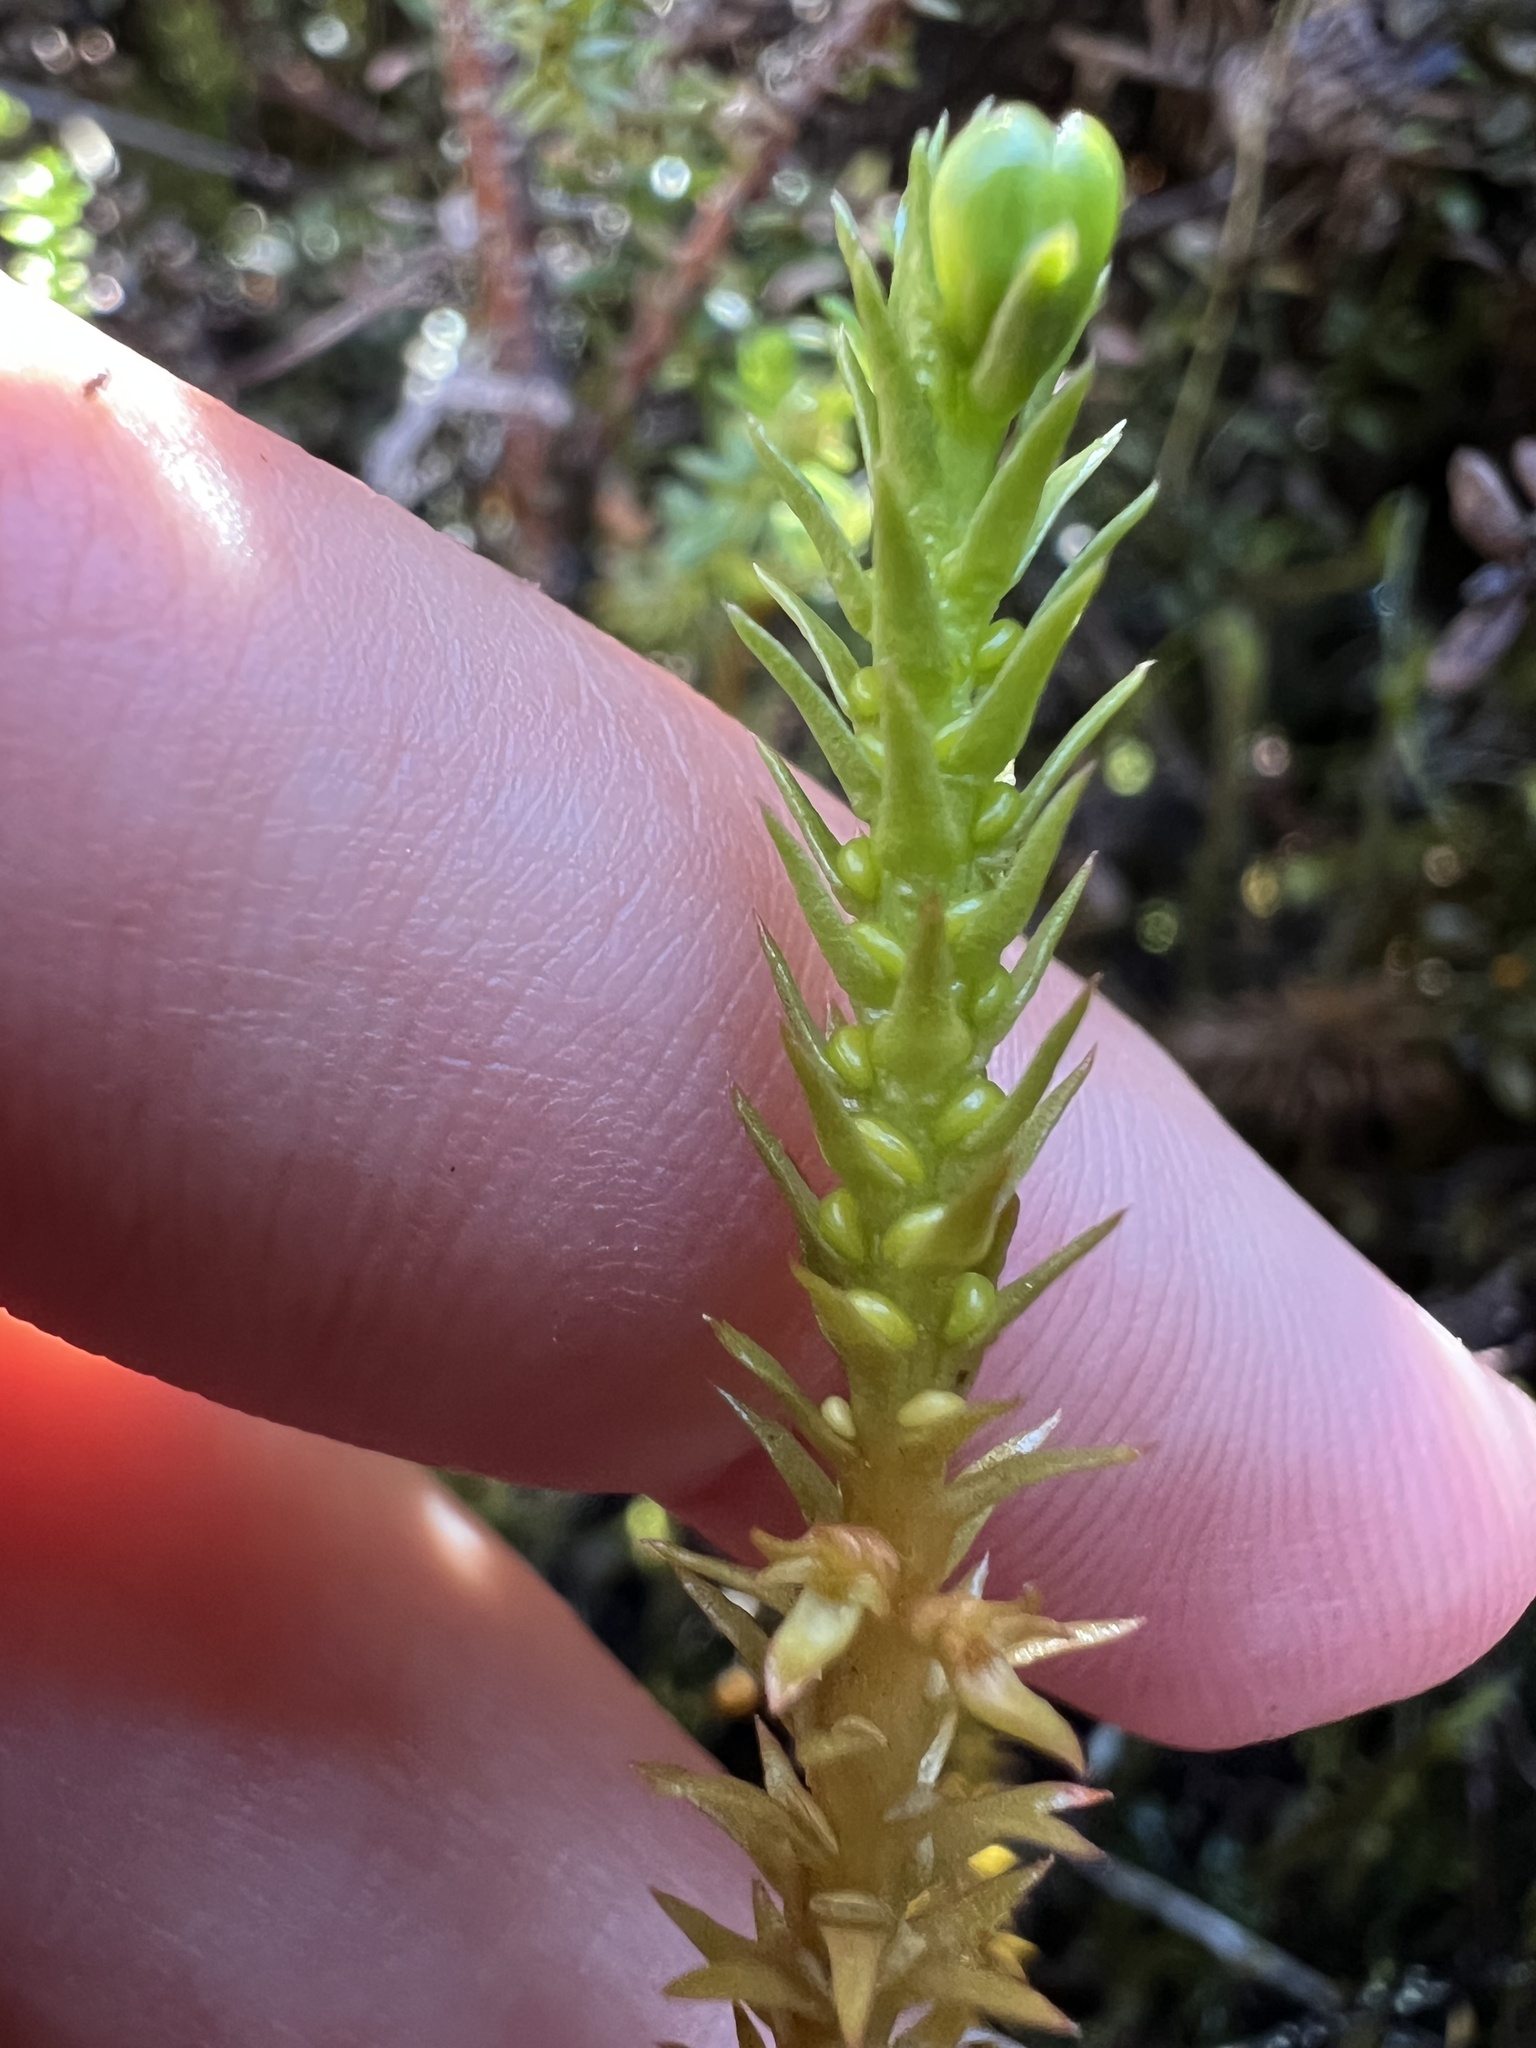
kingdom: Plantae
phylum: Tracheophyta
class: Lycopodiopsida
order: Lycopodiales
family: Lycopodiaceae
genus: Huperzia
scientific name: Huperzia australiana
